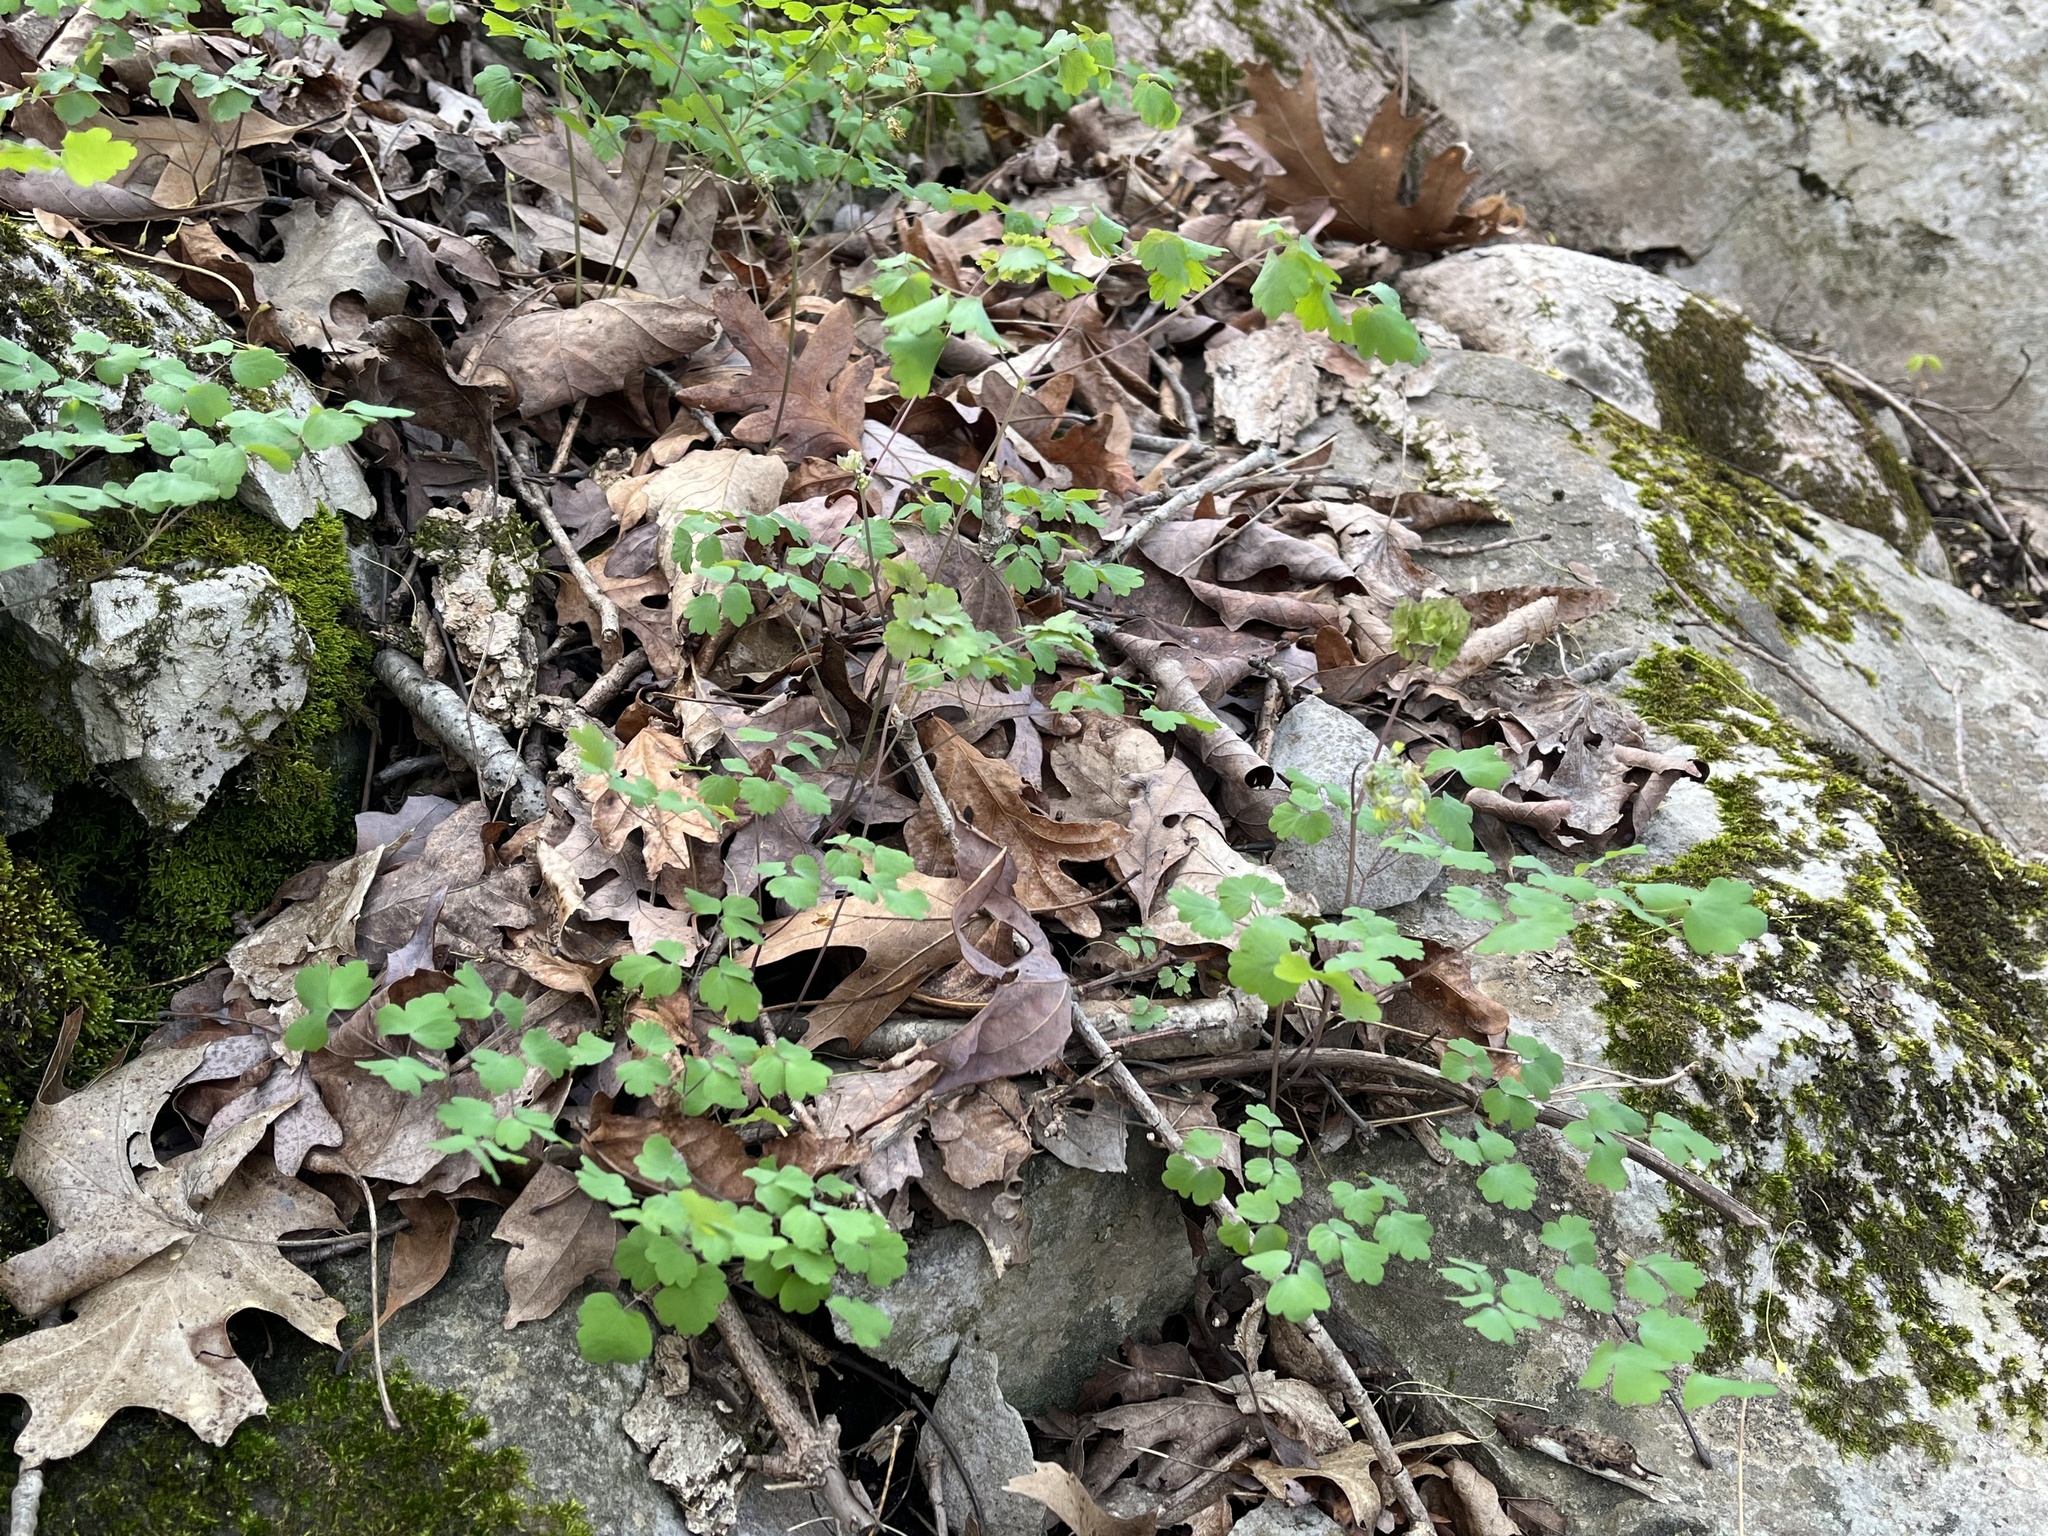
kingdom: Plantae
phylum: Tracheophyta
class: Magnoliopsida
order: Ranunculales
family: Ranunculaceae
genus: Thalictrum
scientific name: Thalictrum dioicum
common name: Early meadow-rue
